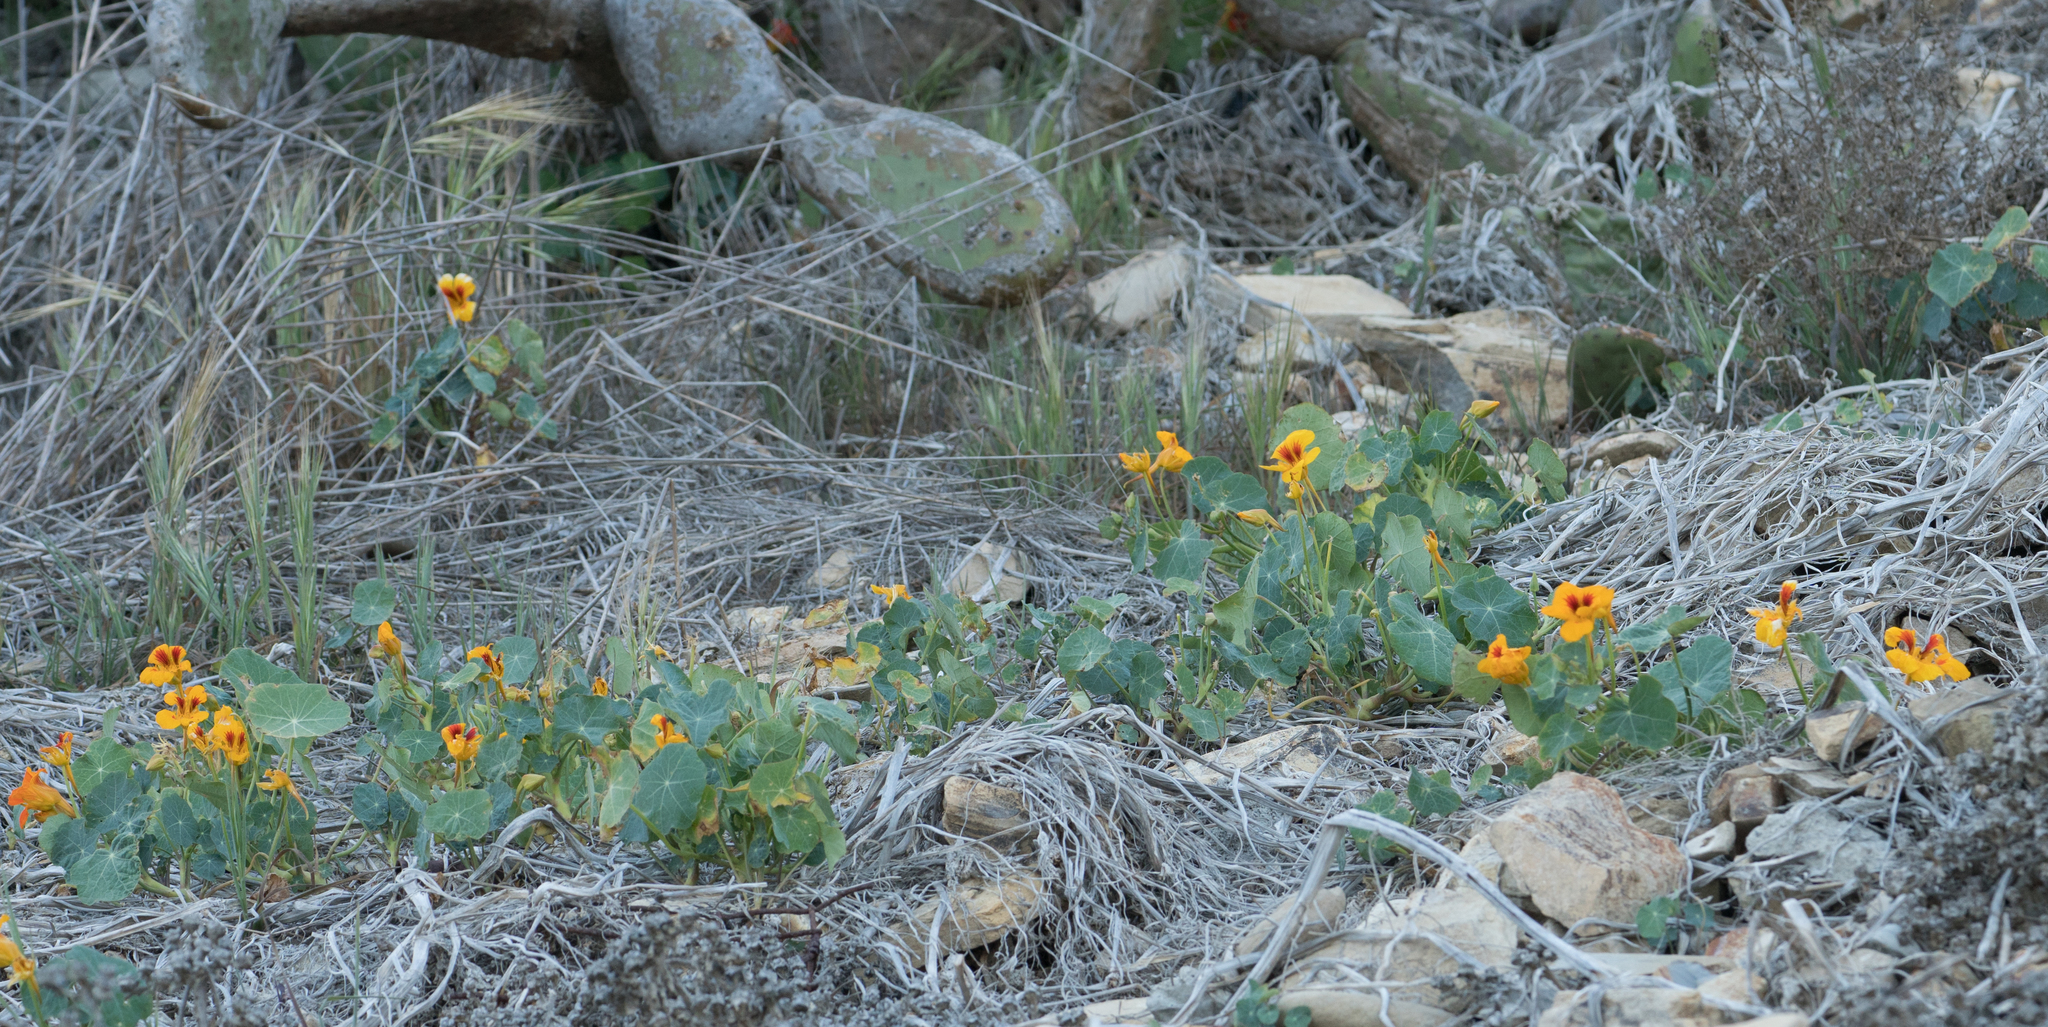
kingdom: Plantae
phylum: Tracheophyta
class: Magnoliopsida
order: Brassicales
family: Tropaeolaceae
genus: Tropaeolum
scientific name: Tropaeolum majus
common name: Nasturtium
